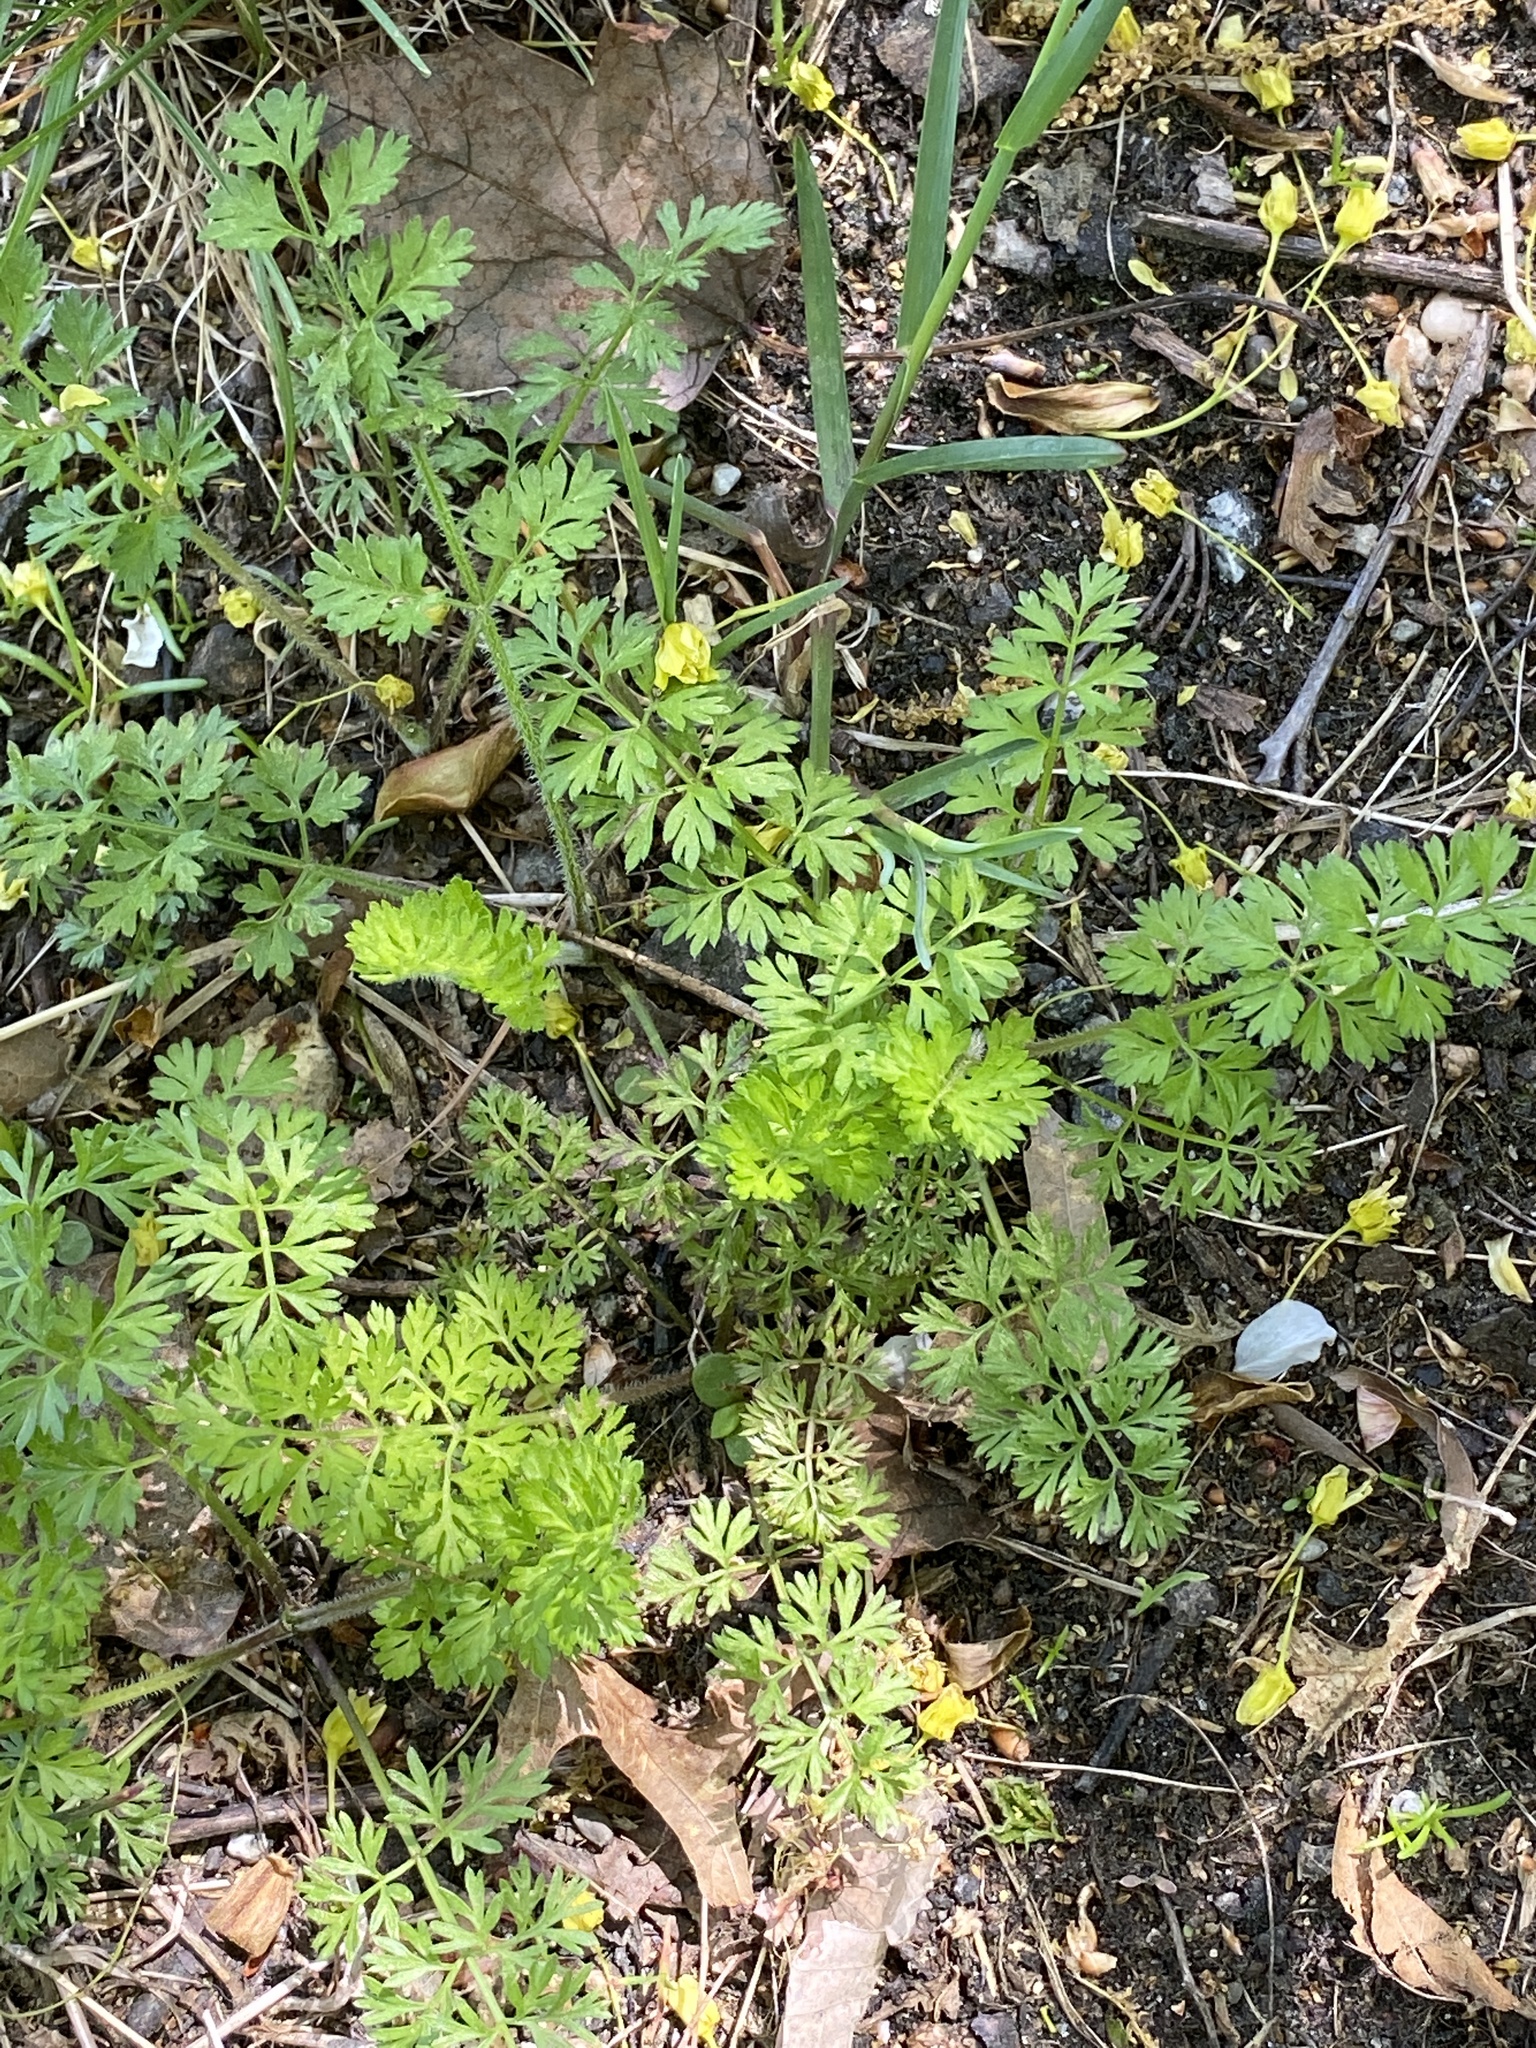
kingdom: Plantae
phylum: Tracheophyta
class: Magnoliopsida
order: Apiales
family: Apiaceae
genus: Daucus
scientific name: Daucus carota
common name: Wild carrot
